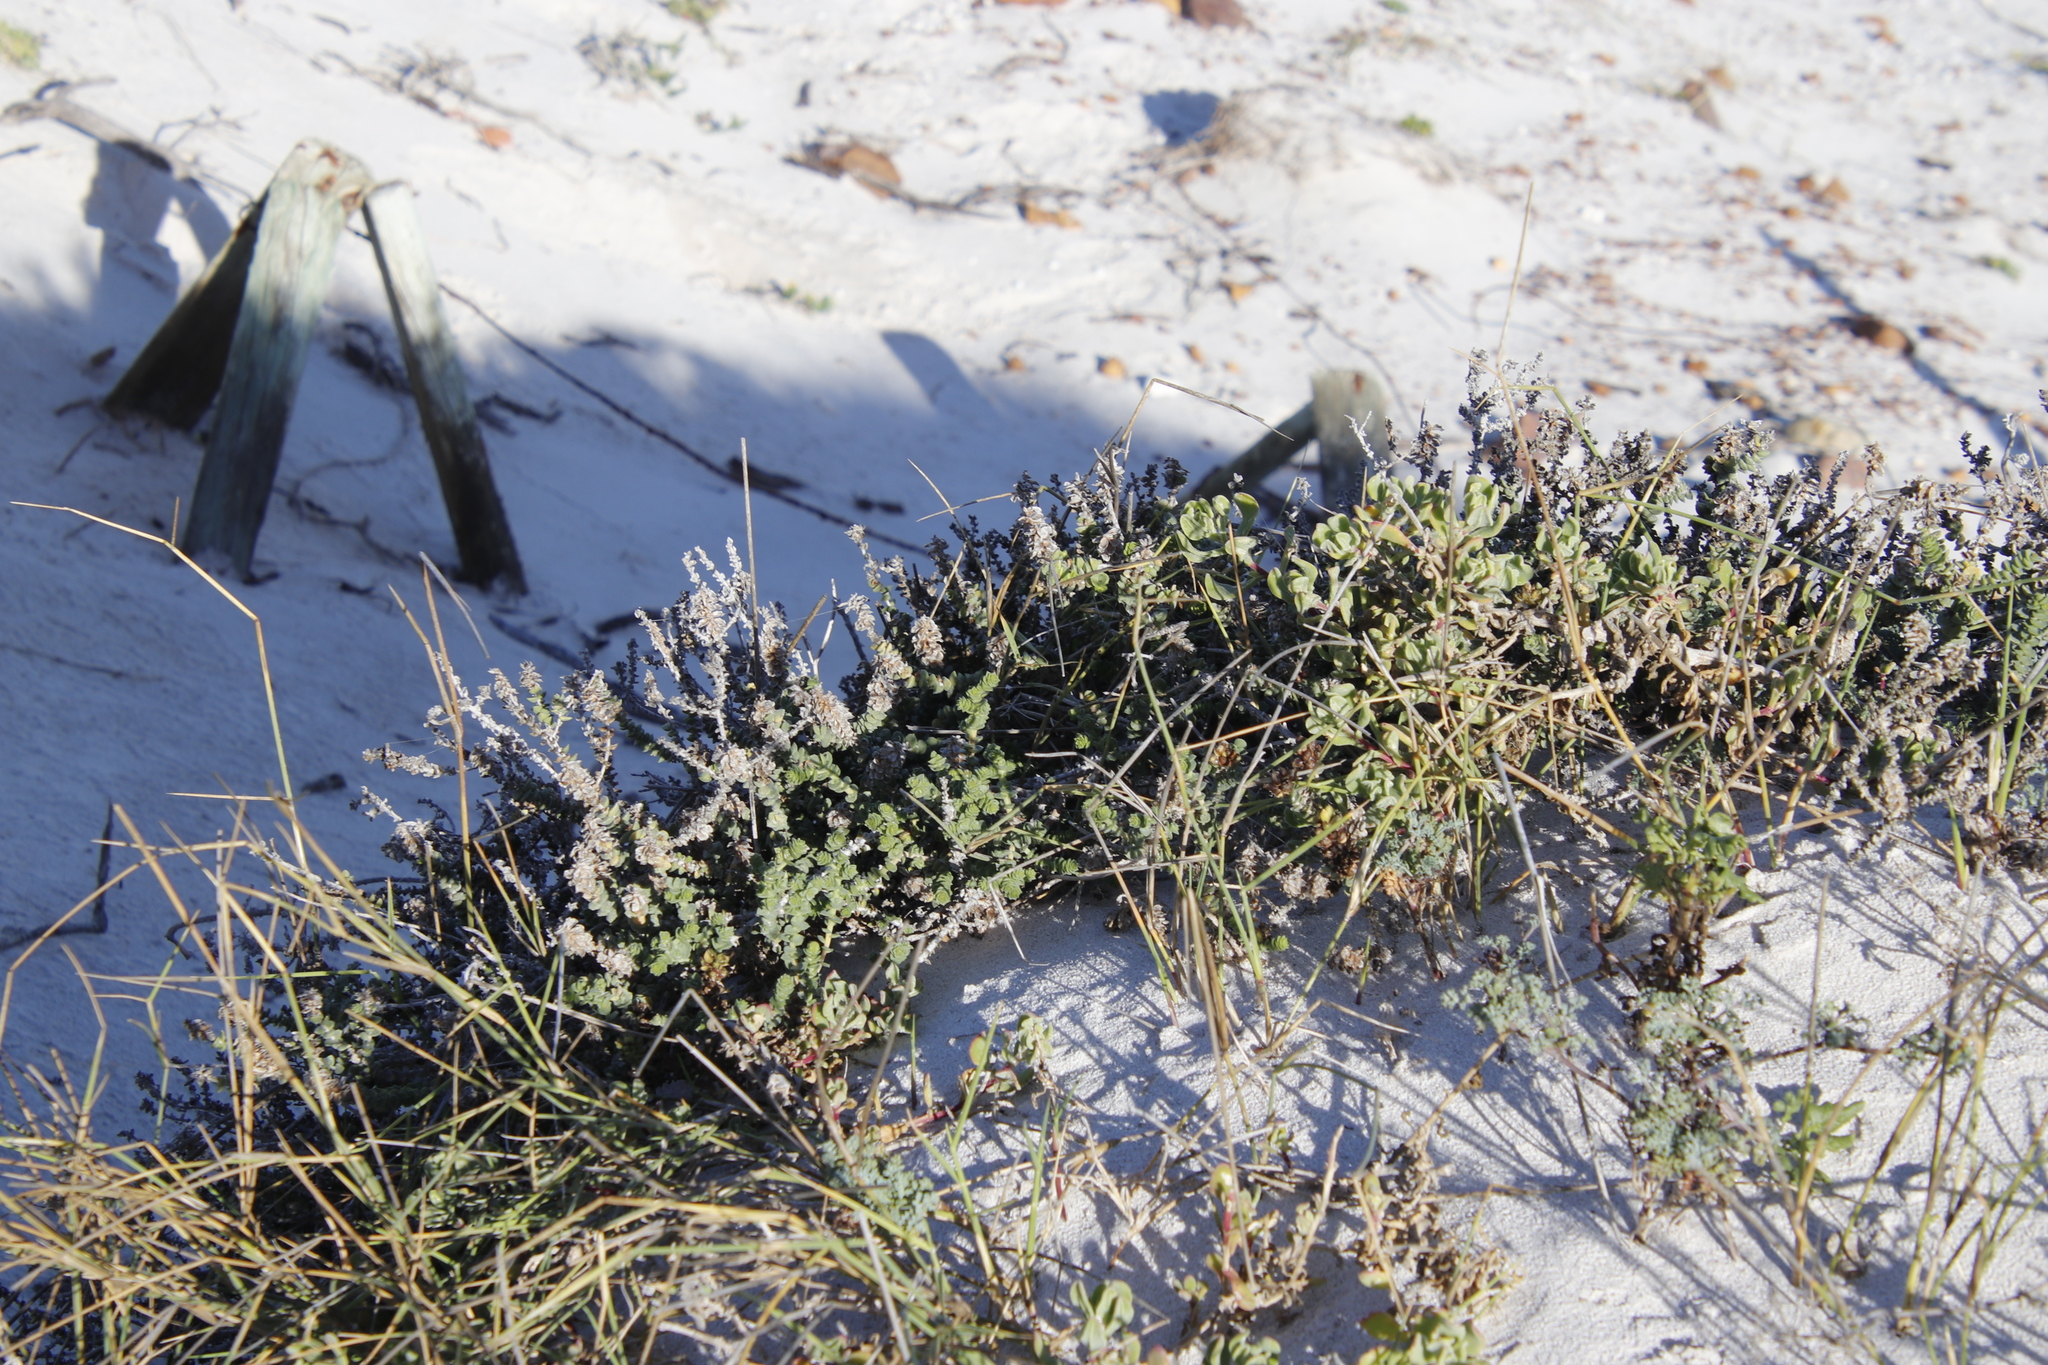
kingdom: Plantae
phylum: Tracheophyta
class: Magnoliopsida
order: Lamiales
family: Scrophulariaceae
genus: Hebenstretia
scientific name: Hebenstretia cordata
